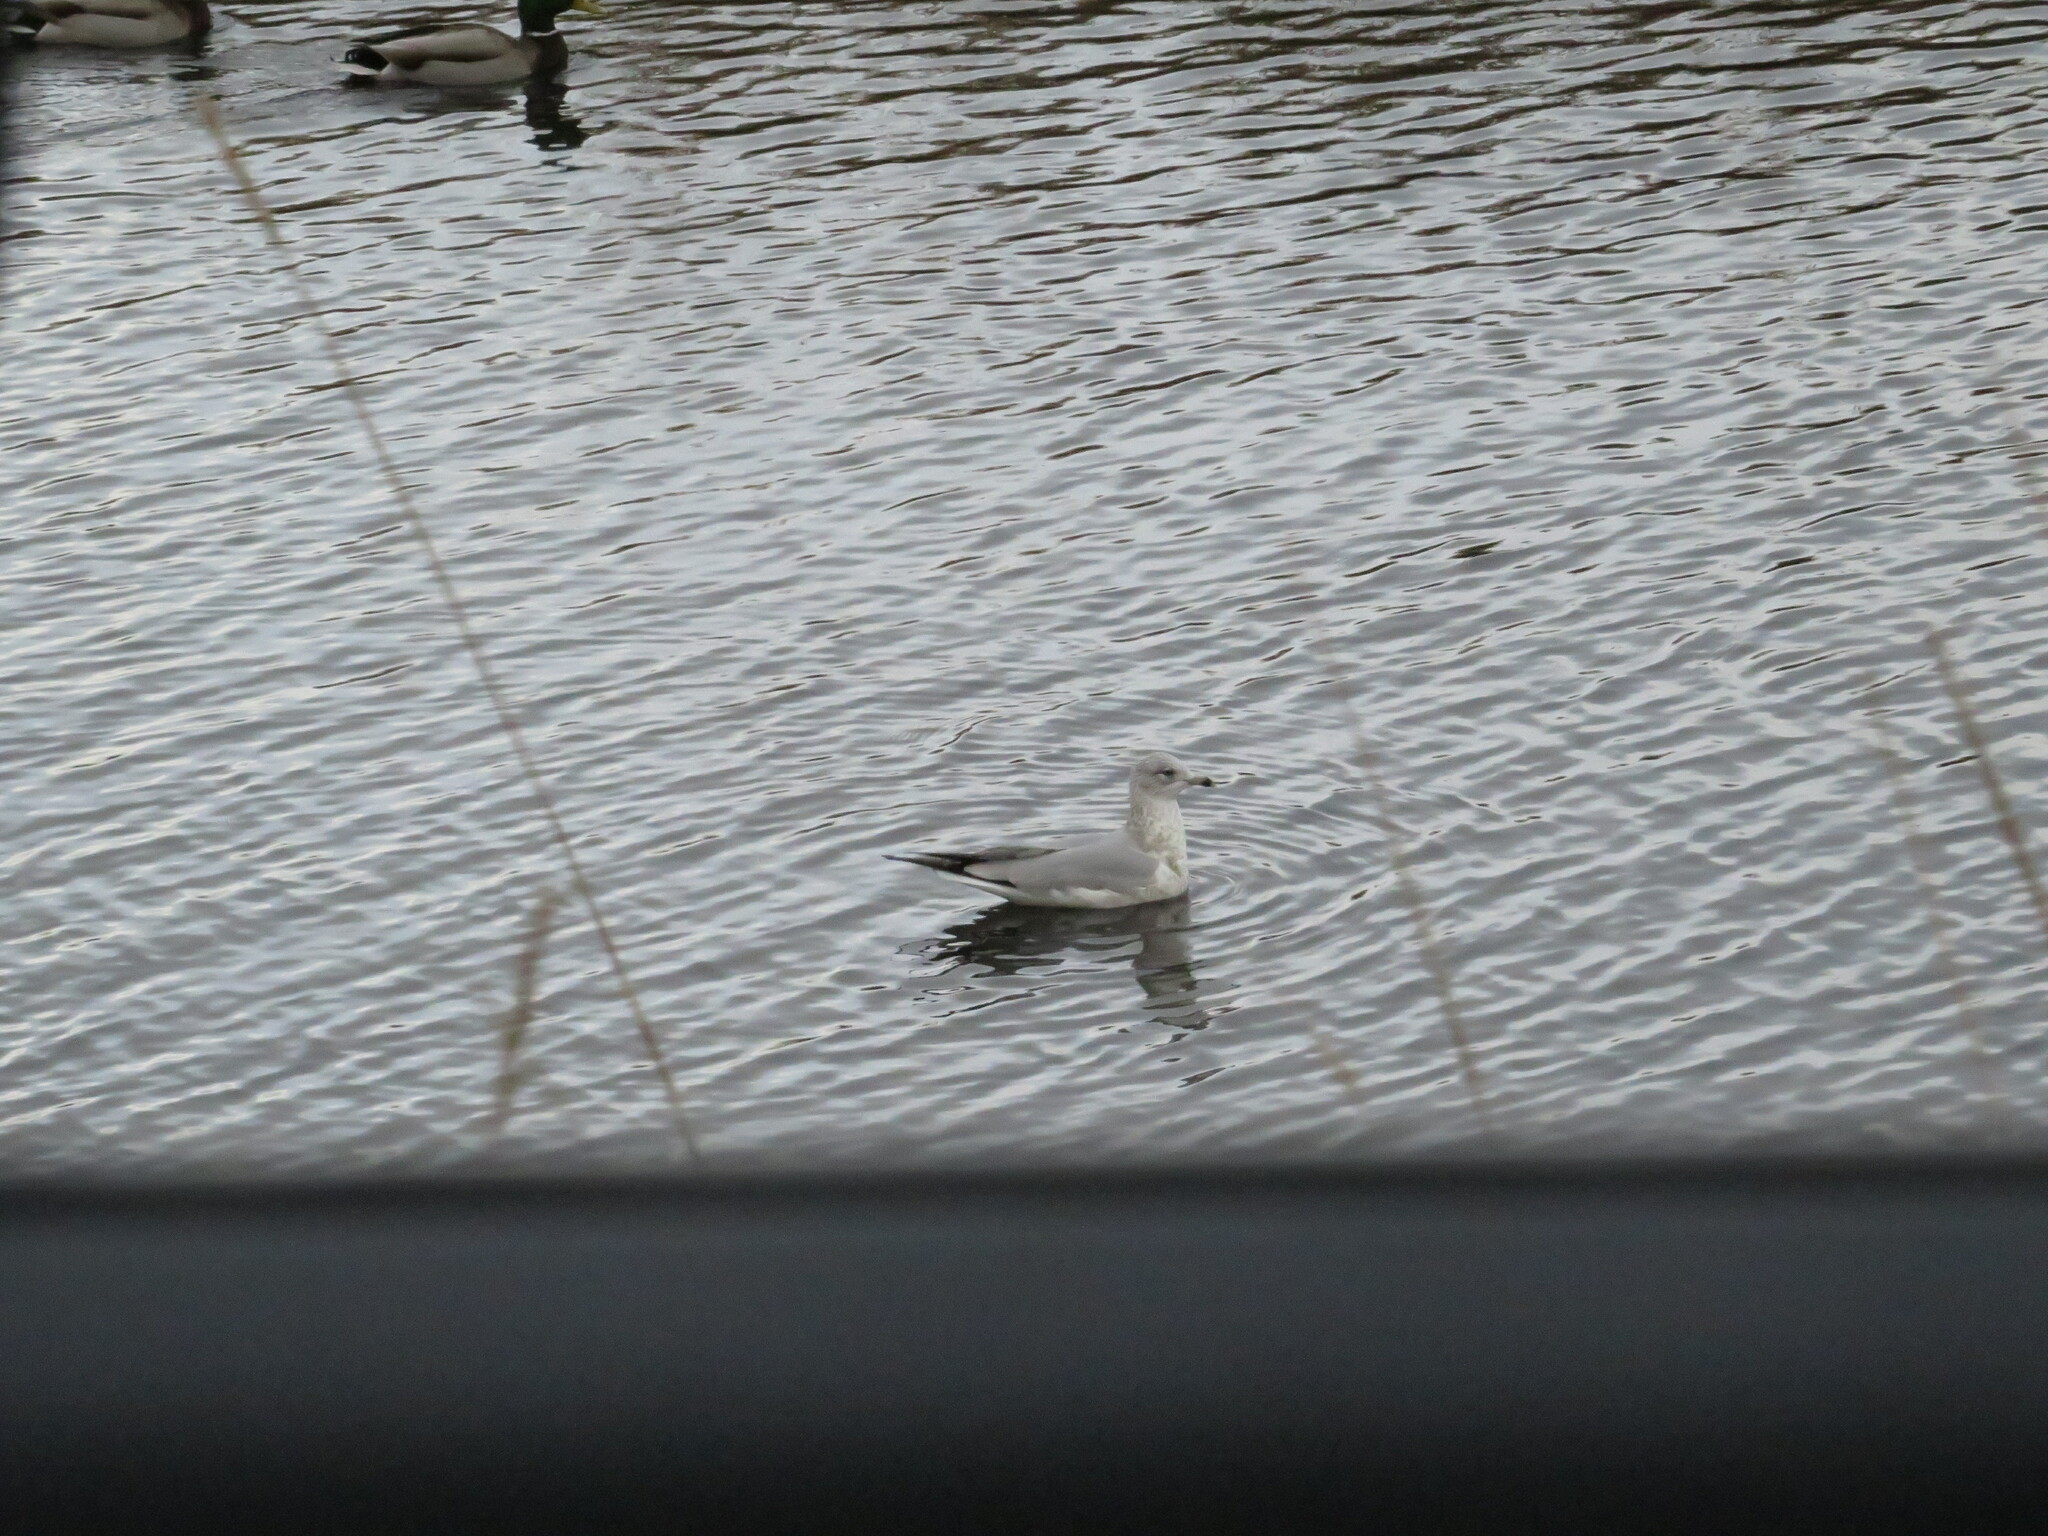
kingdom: Animalia
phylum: Chordata
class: Aves
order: Charadriiformes
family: Laridae
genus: Larus
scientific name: Larus delawarensis
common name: Ring-billed gull
